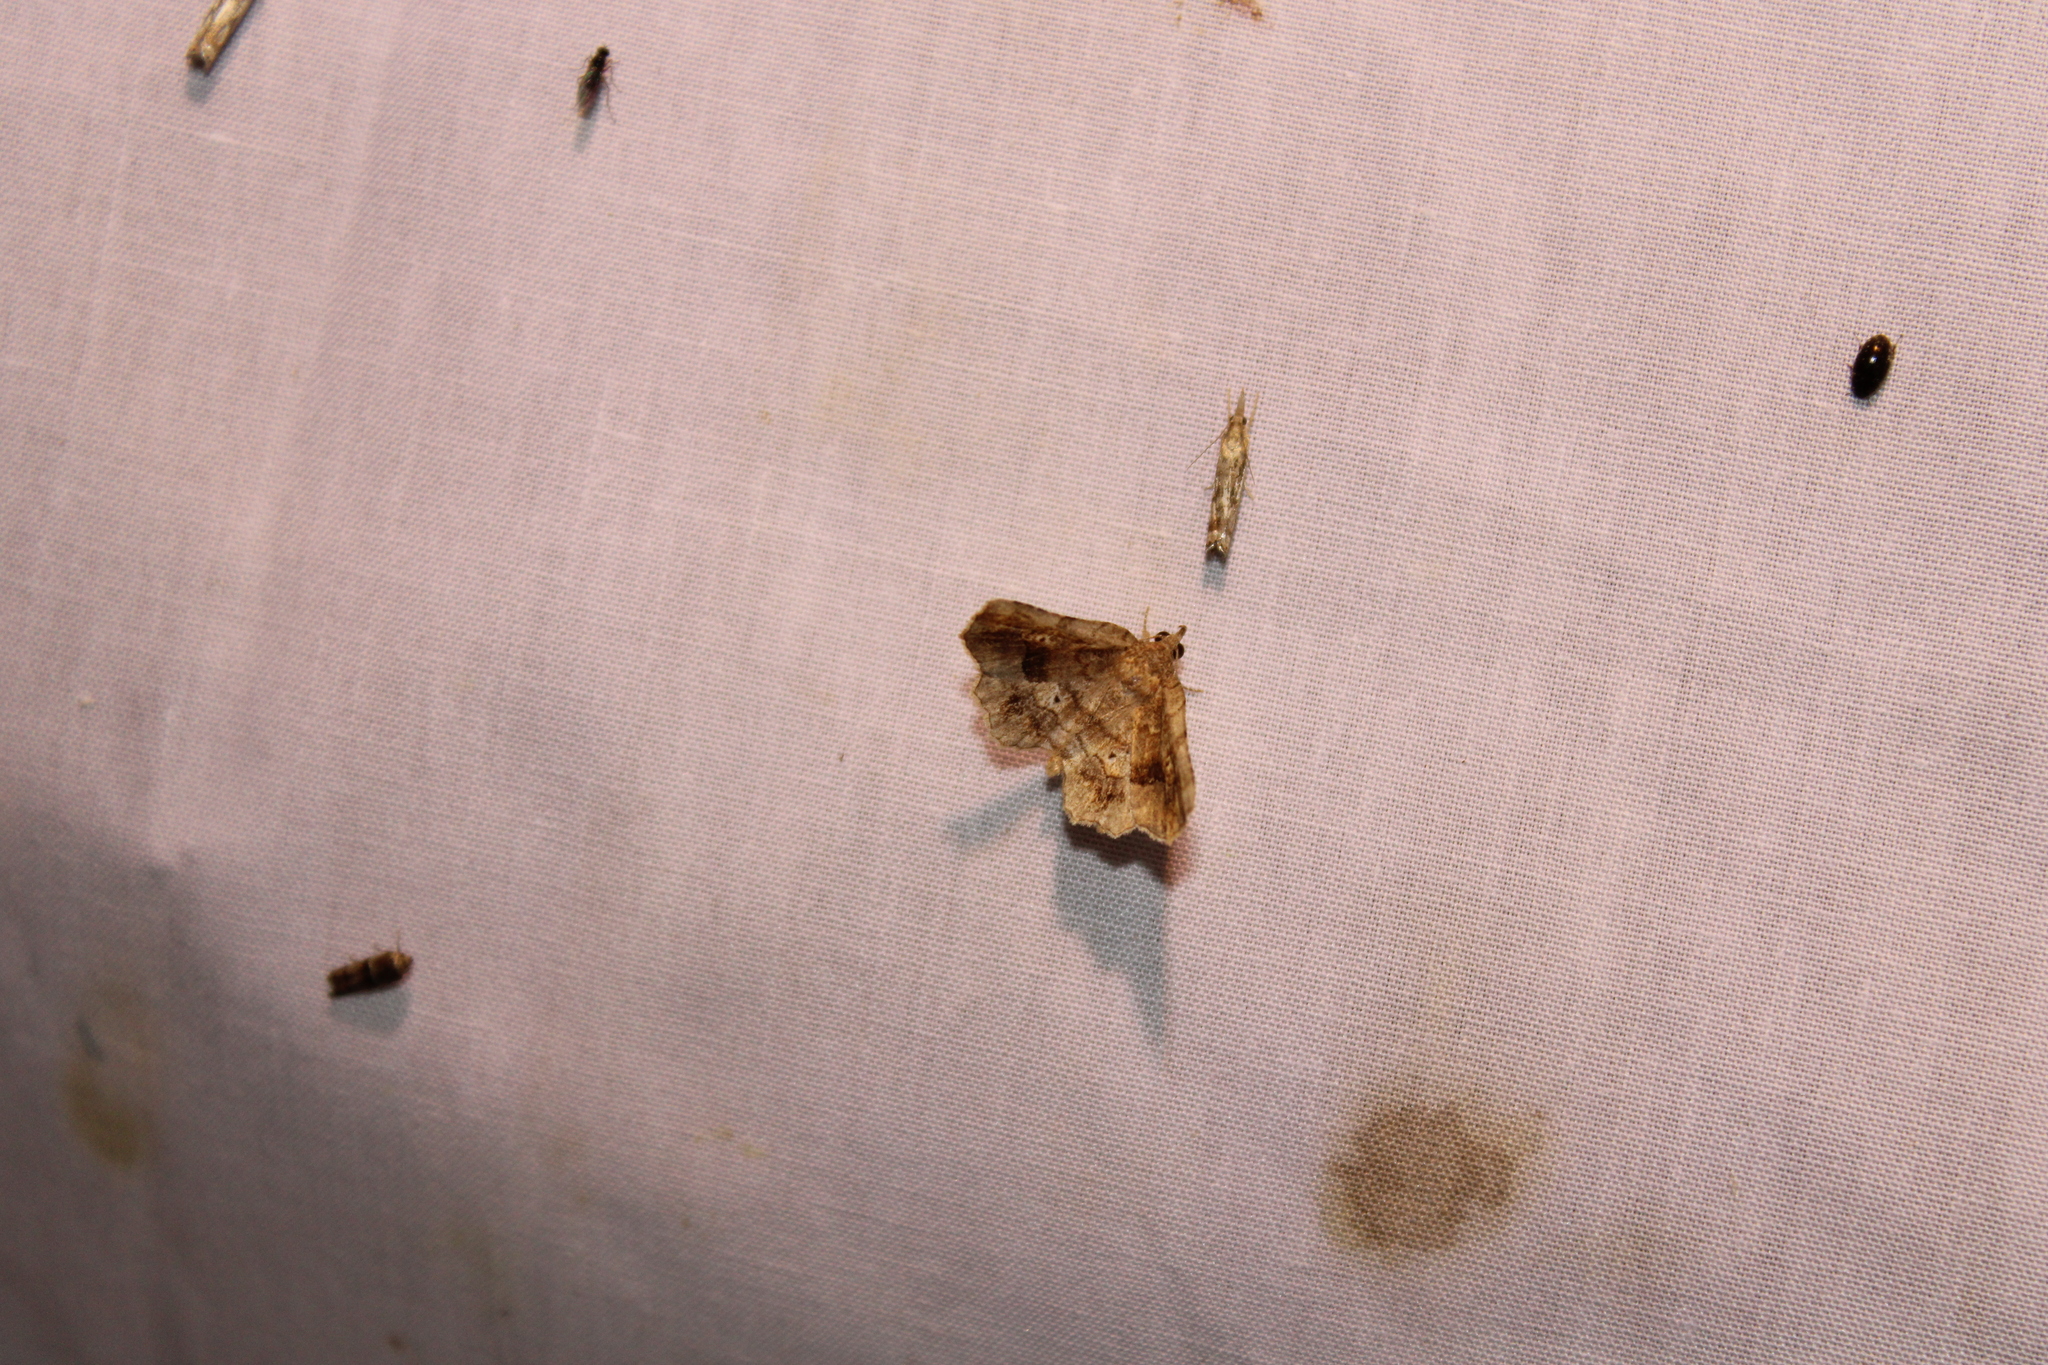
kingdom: Animalia
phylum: Arthropoda
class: Insecta
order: Lepidoptera
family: Erebidae
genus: Pangrapta
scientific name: Pangrapta decoralis
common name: Decorated owlet
